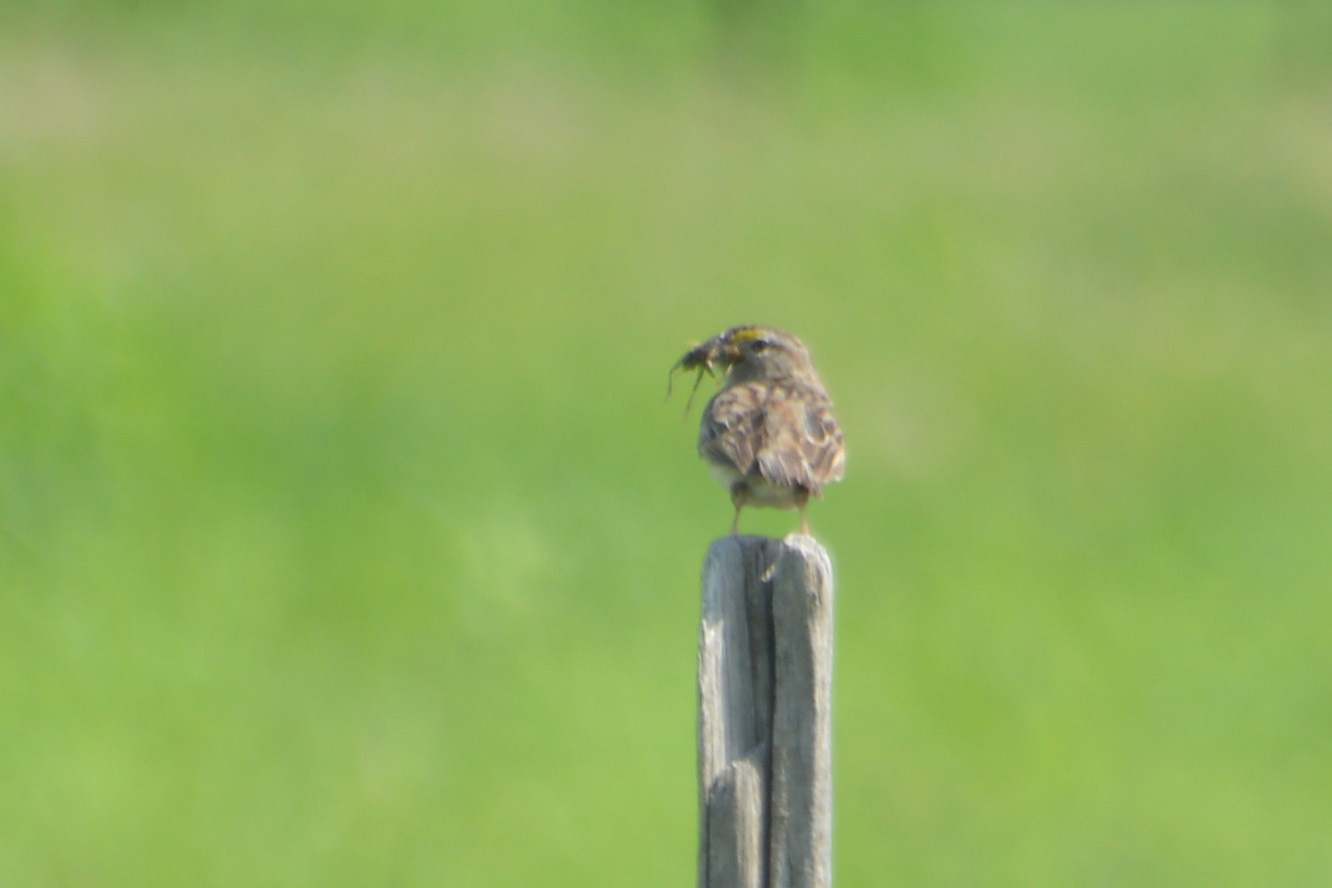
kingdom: Animalia
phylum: Chordata
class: Aves
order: Passeriformes
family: Passerellidae
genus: Ammodramus
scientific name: Ammodramus humeralis
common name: Grassland sparrow
